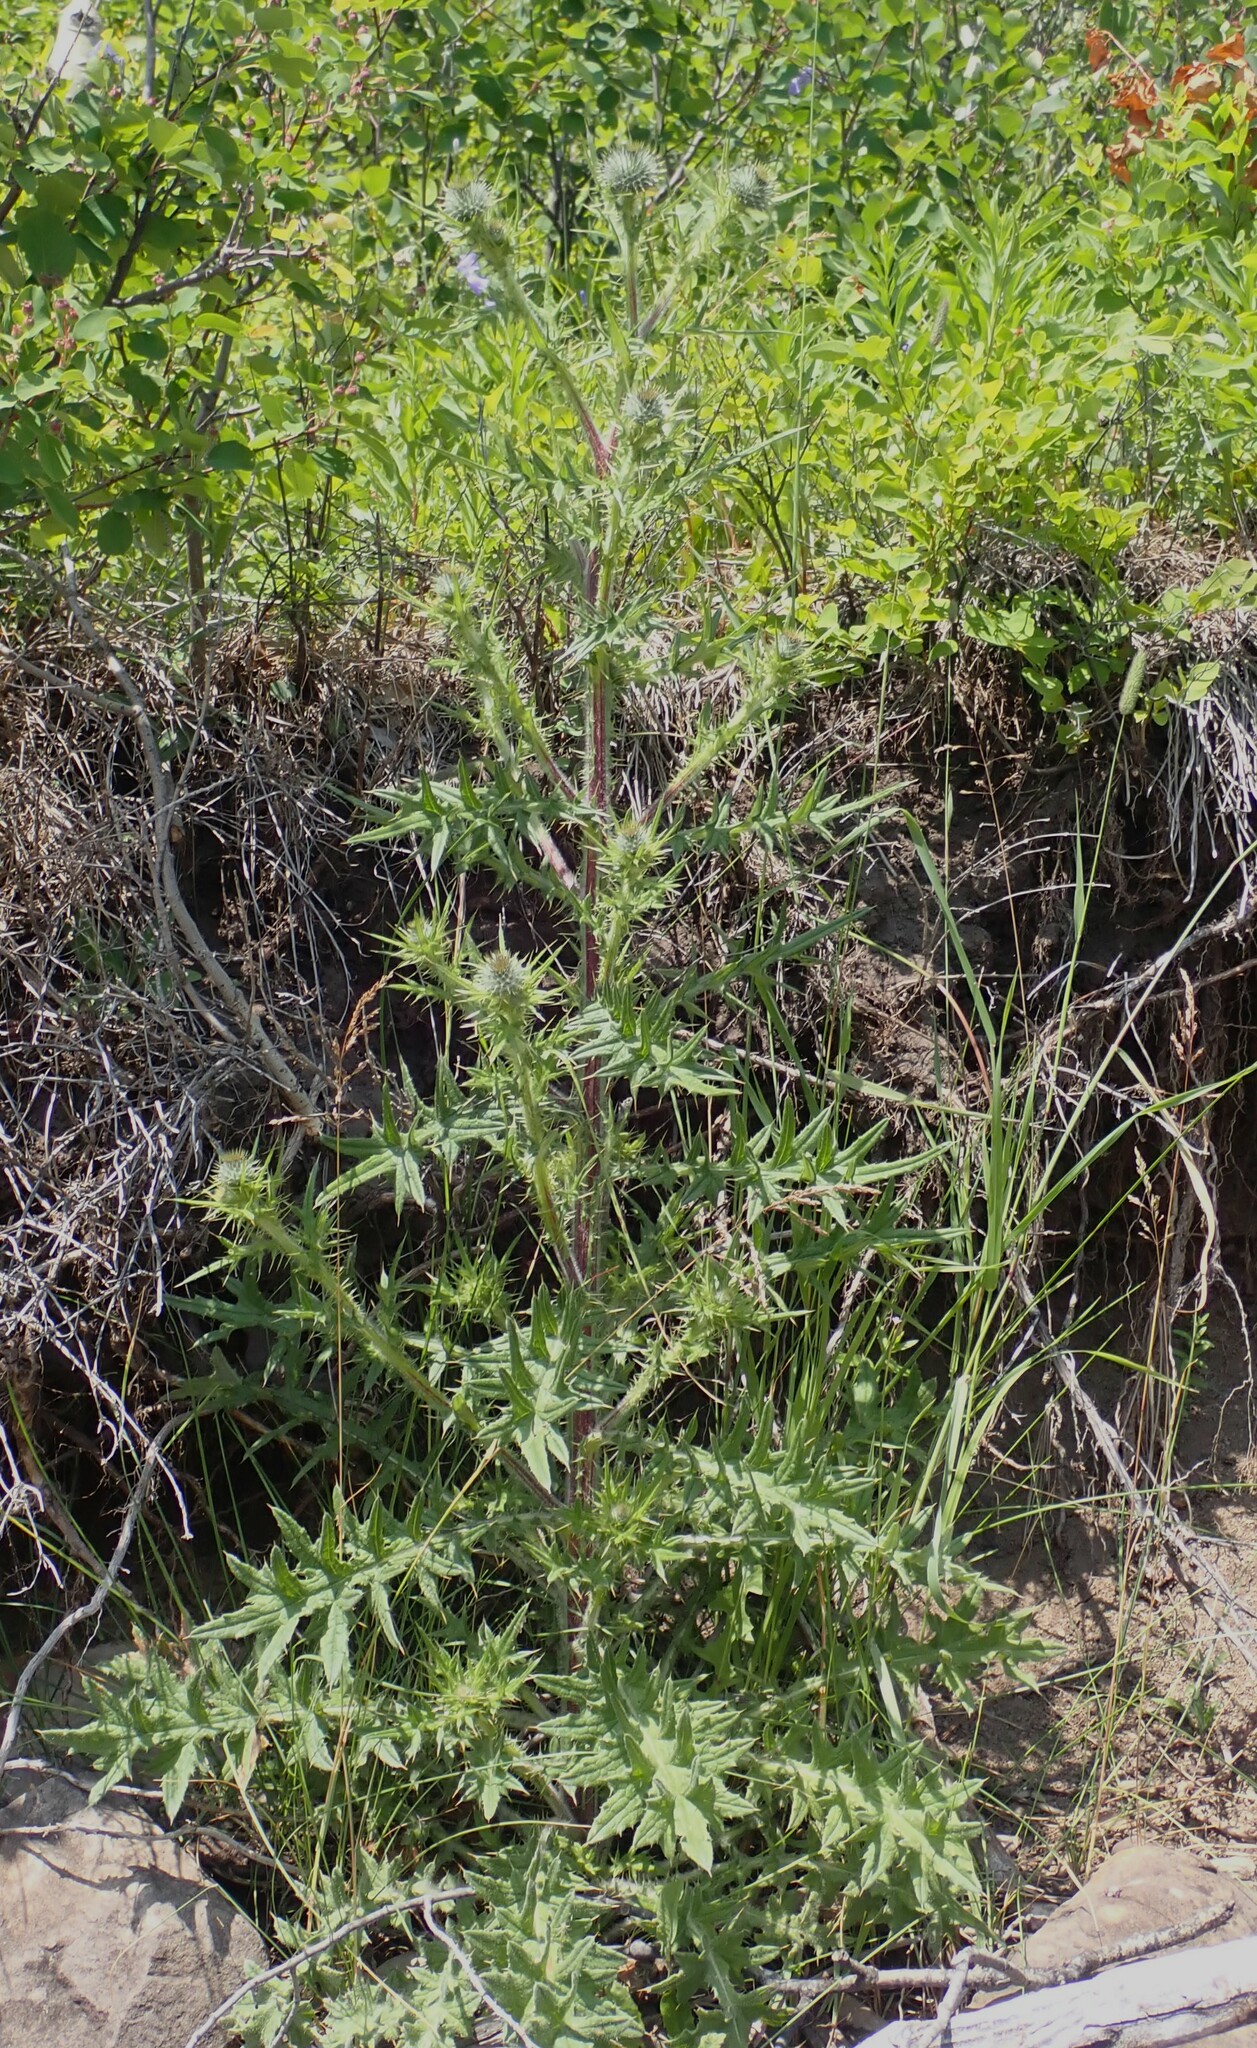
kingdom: Plantae
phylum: Tracheophyta
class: Magnoliopsida
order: Asterales
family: Asteraceae
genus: Cirsium
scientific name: Cirsium vulgare
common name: Bull thistle
